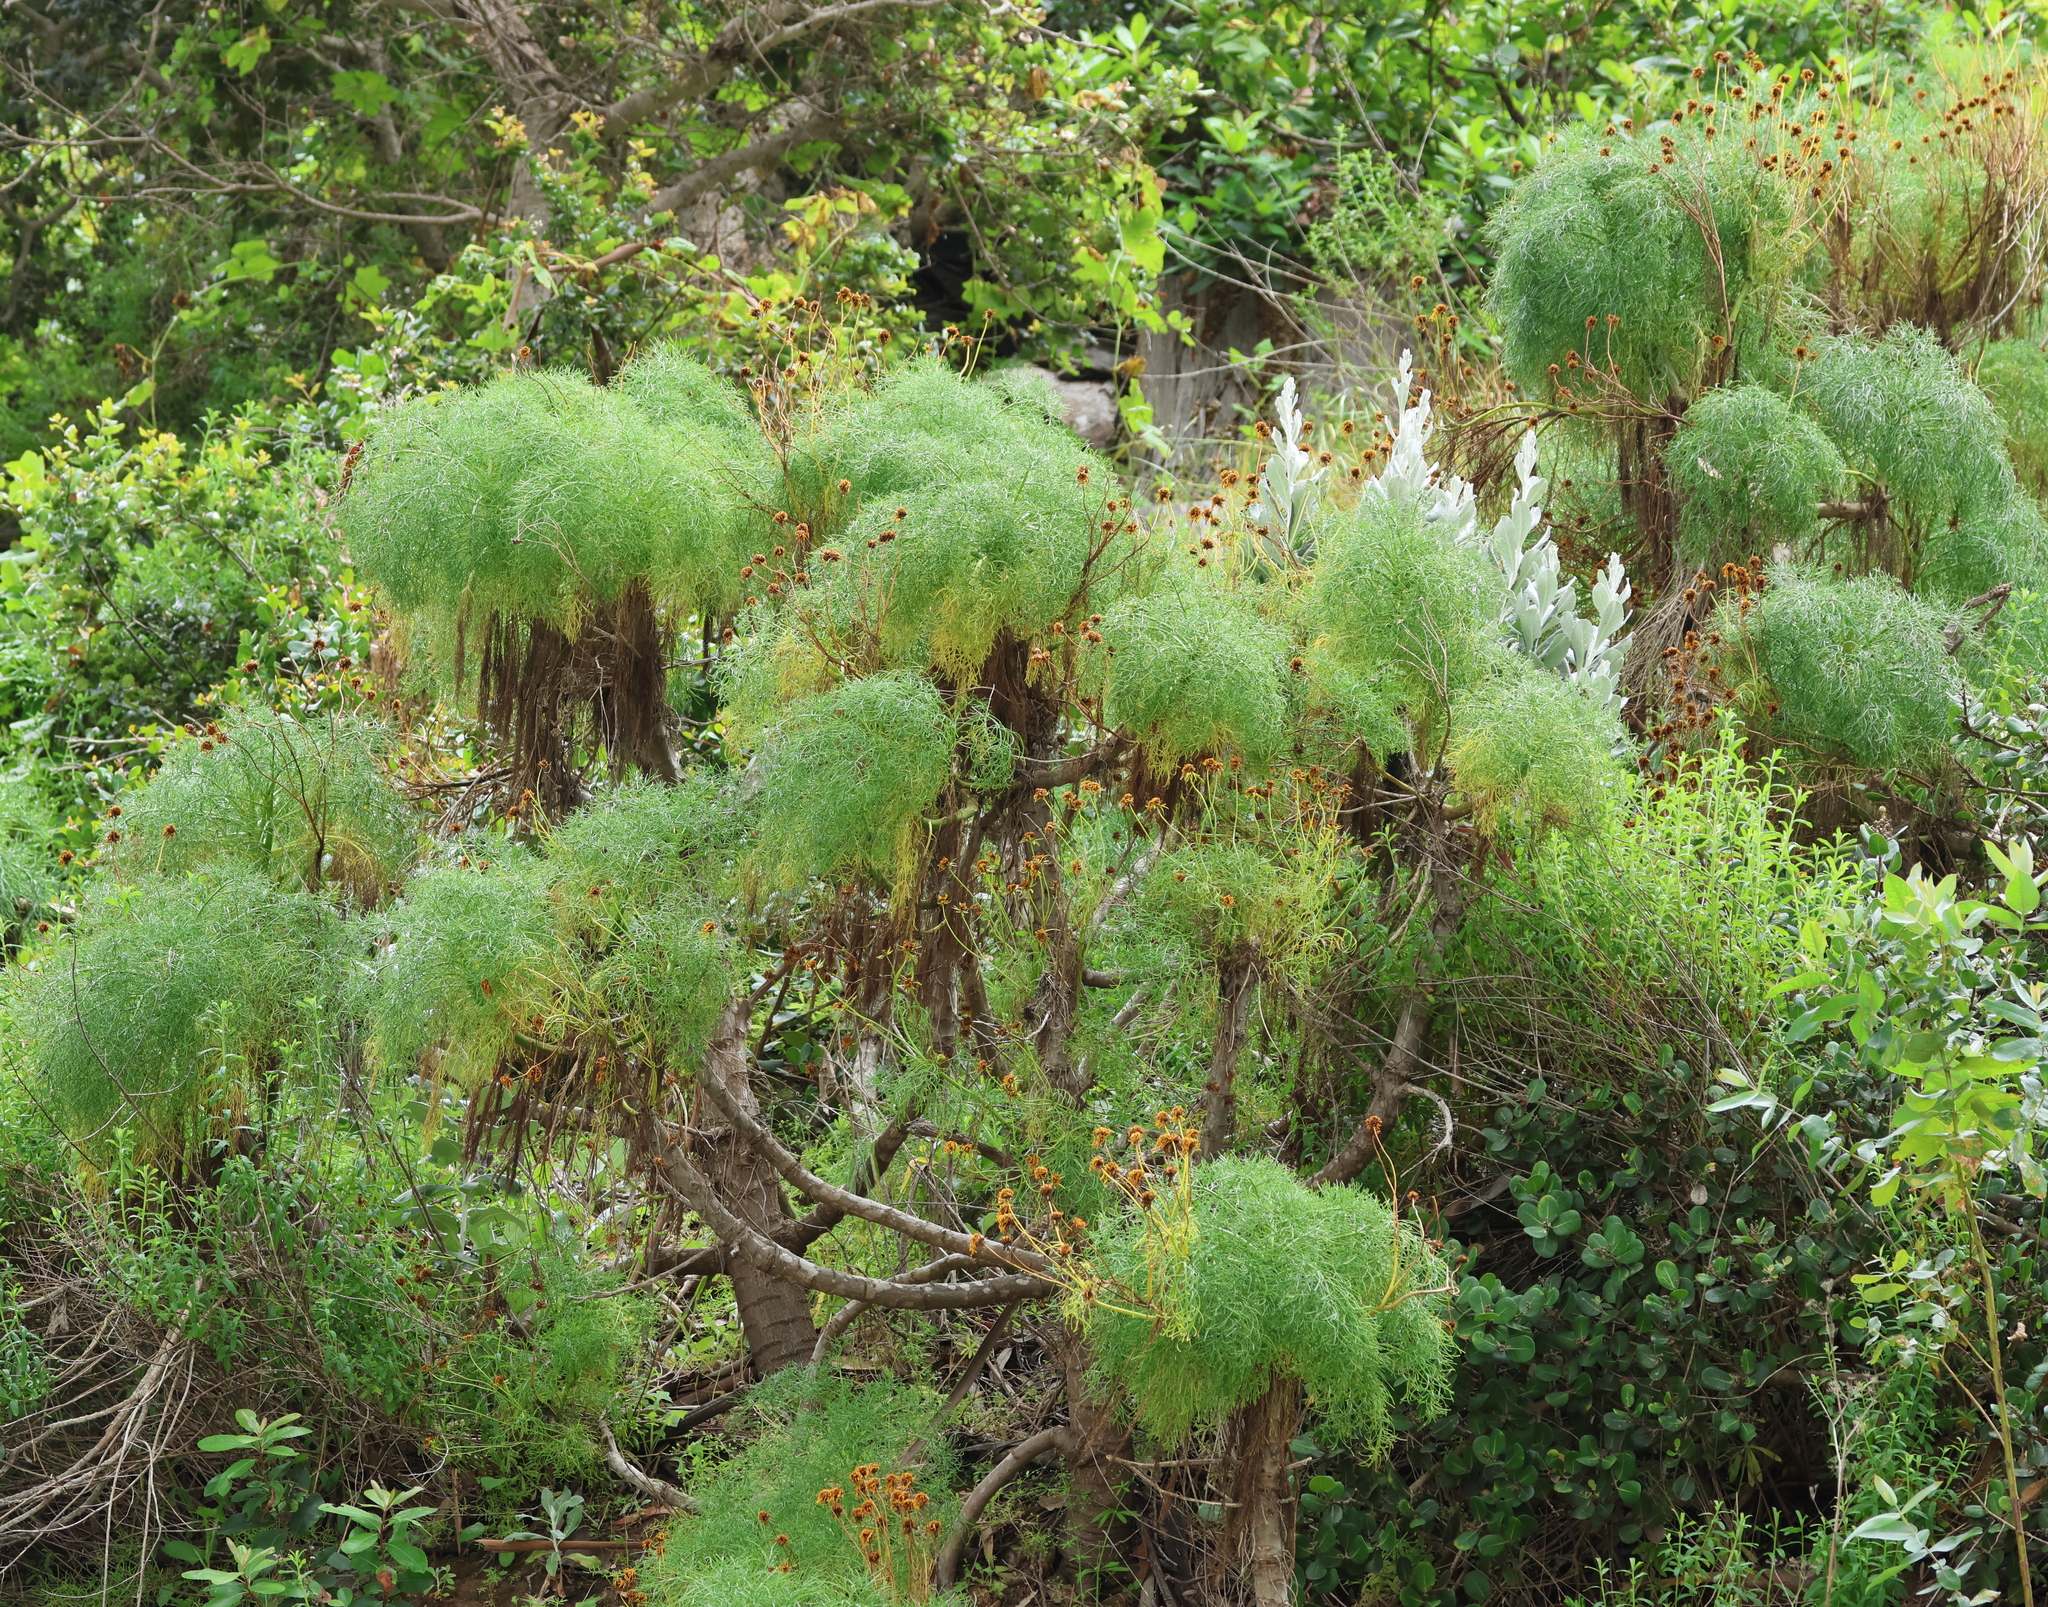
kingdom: Plantae
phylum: Tracheophyta
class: Magnoliopsida
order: Asterales
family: Asteraceae
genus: Coreopsis
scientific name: Coreopsis gigantea
